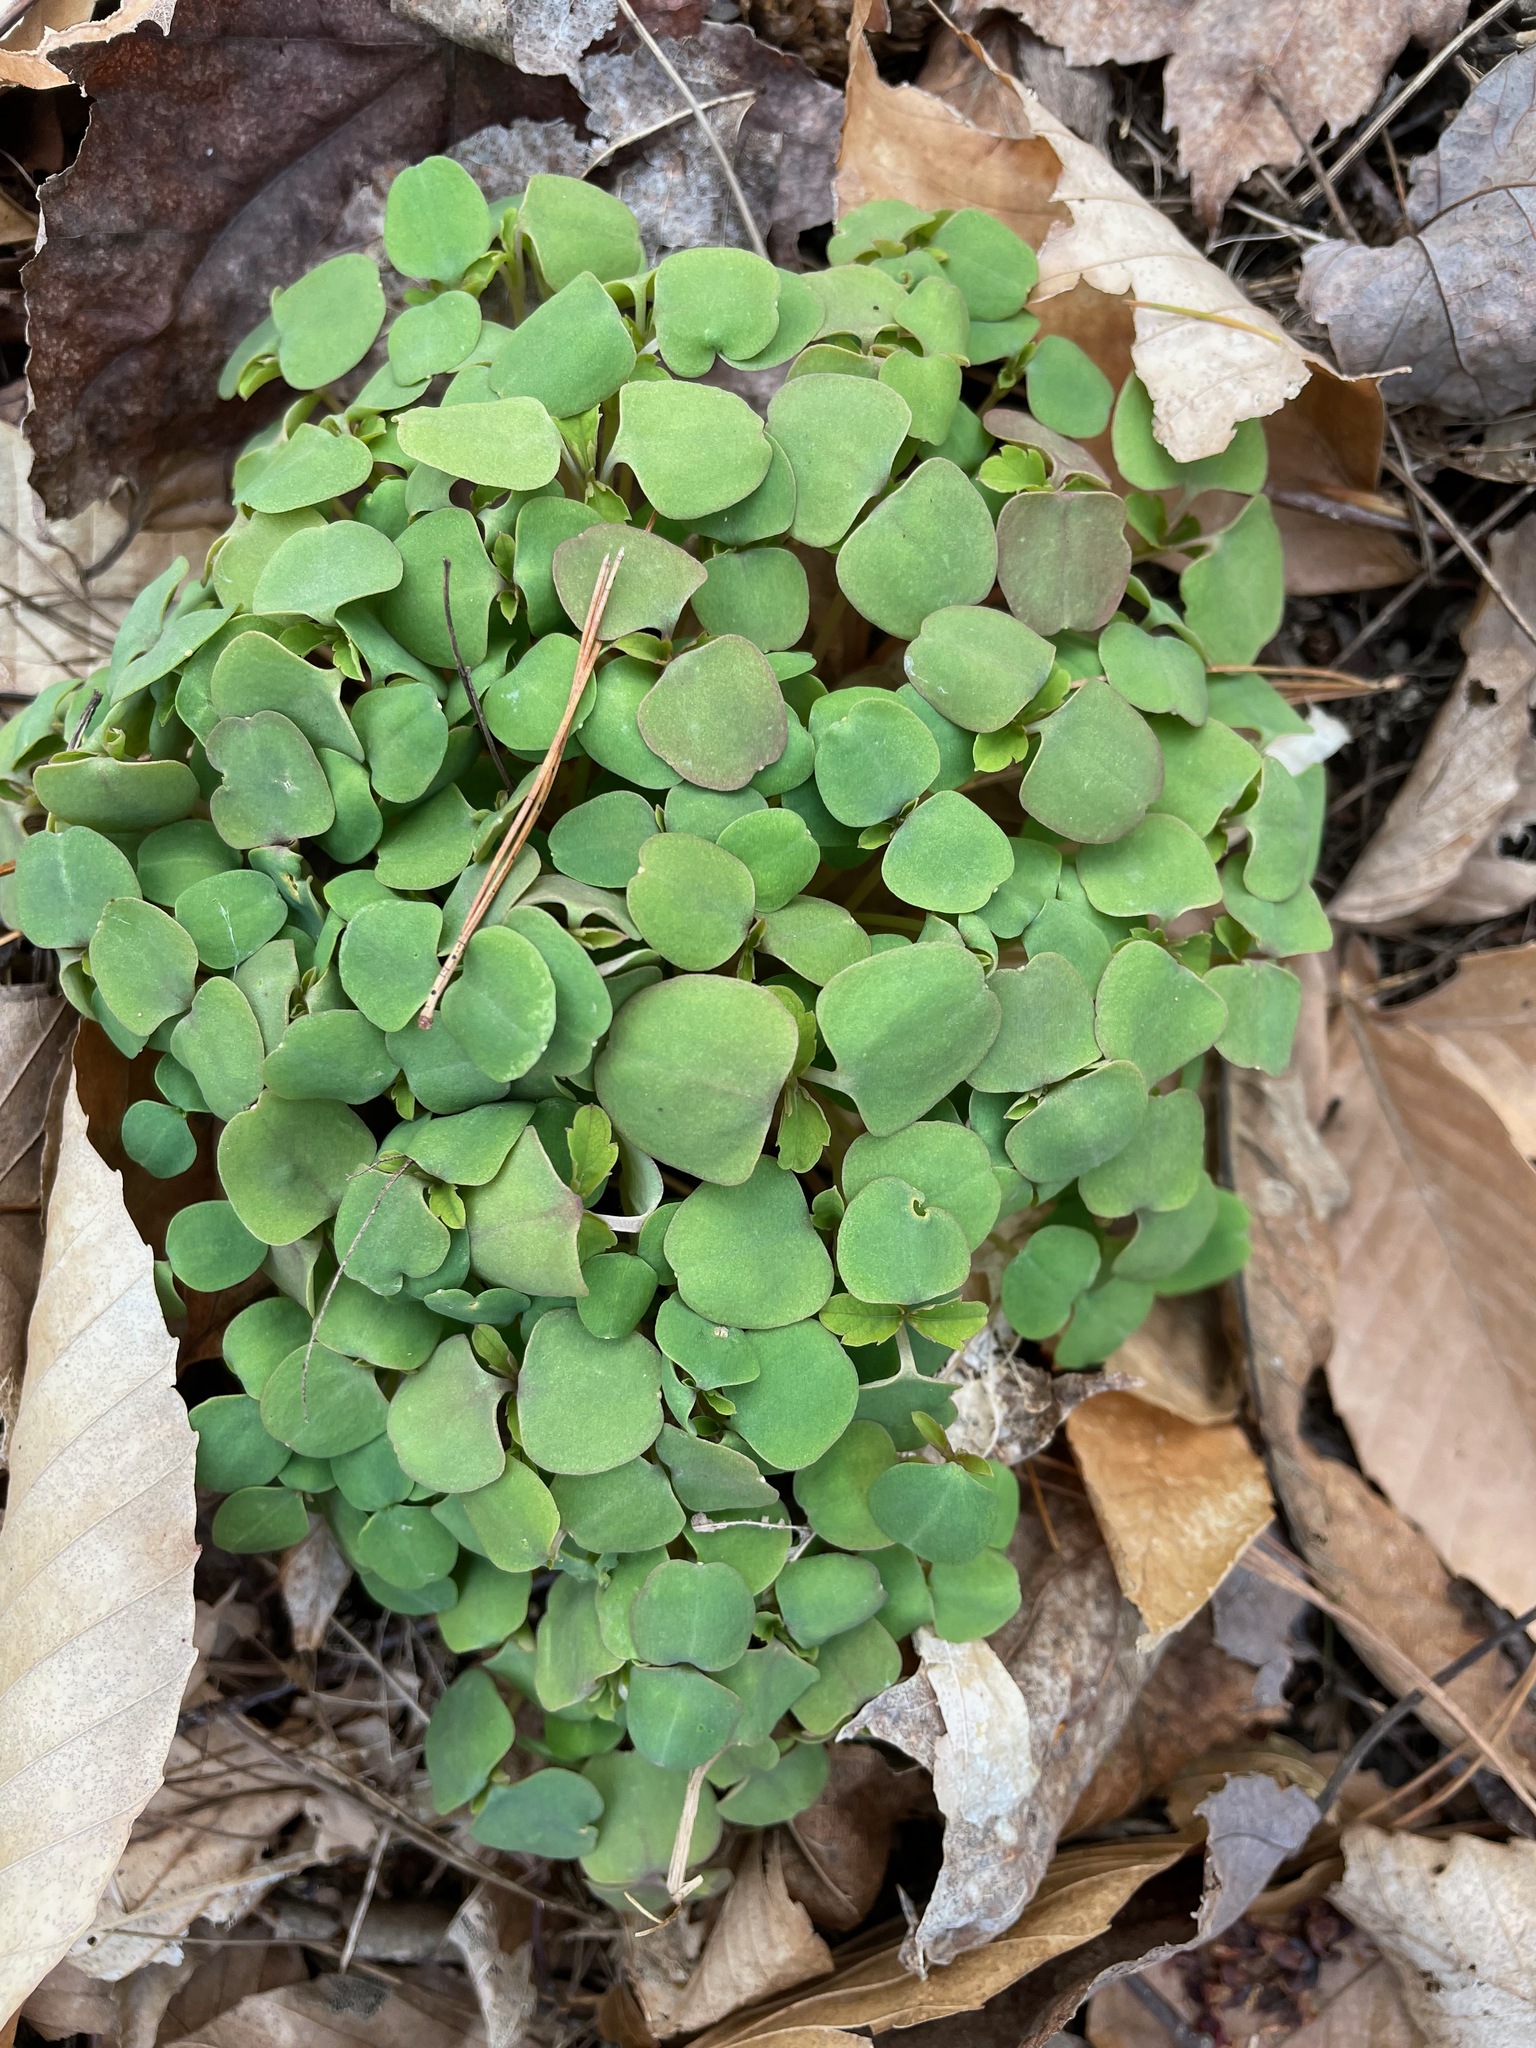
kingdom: Plantae
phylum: Tracheophyta
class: Magnoliopsida
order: Ericales
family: Balsaminaceae
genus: Impatiens
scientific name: Impatiens
